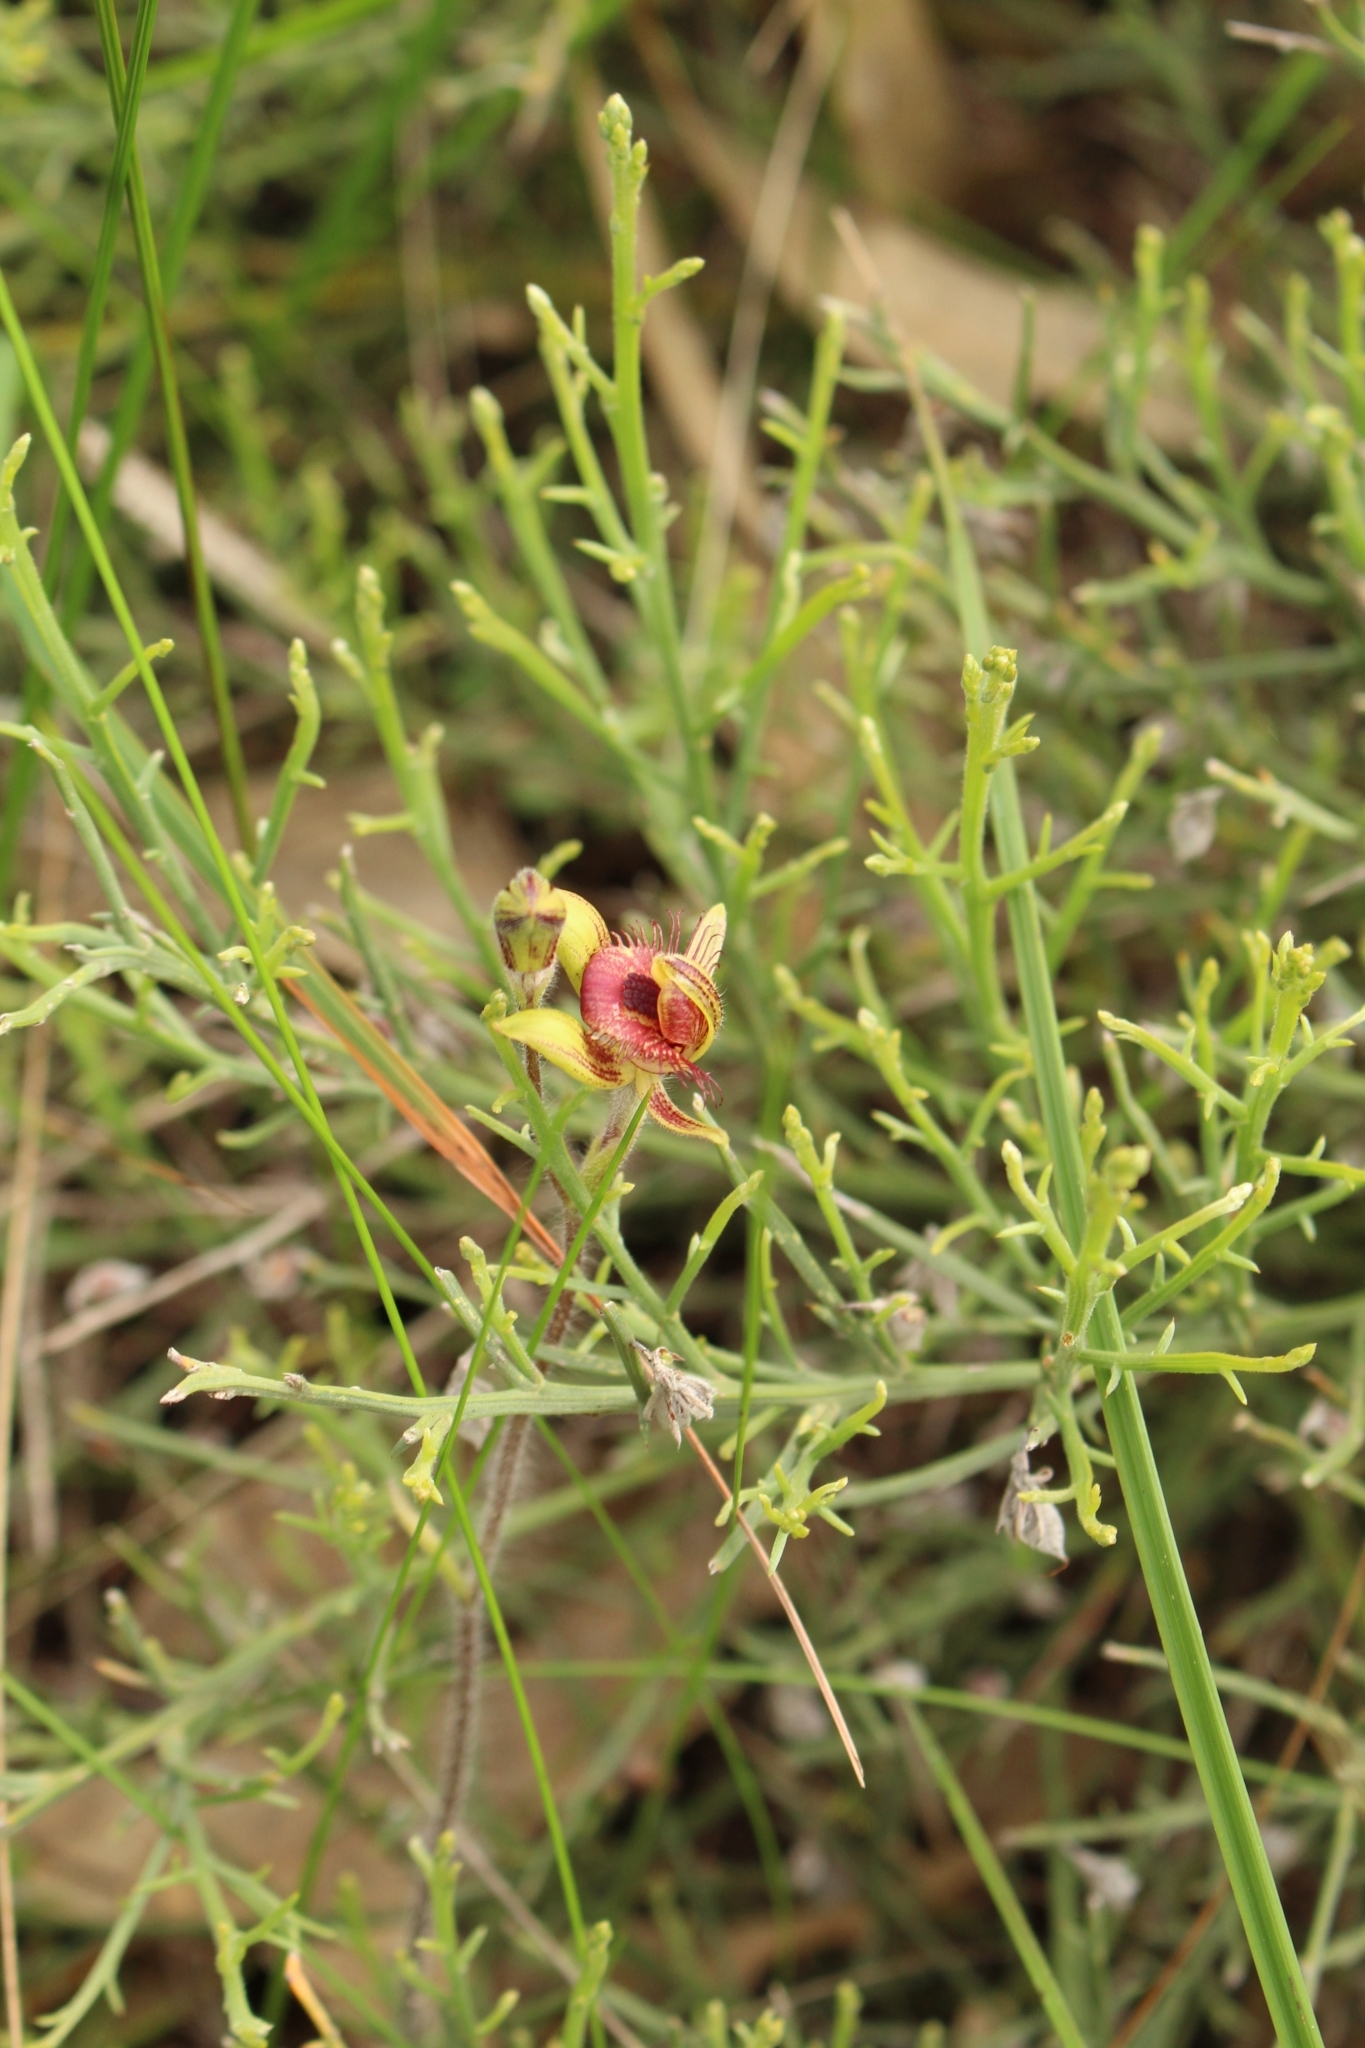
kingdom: Plantae
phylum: Tracheophyta
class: Liliopsida
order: Asparagales
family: Orchidaceae
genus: Caladenia
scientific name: Caladenia discoidea
